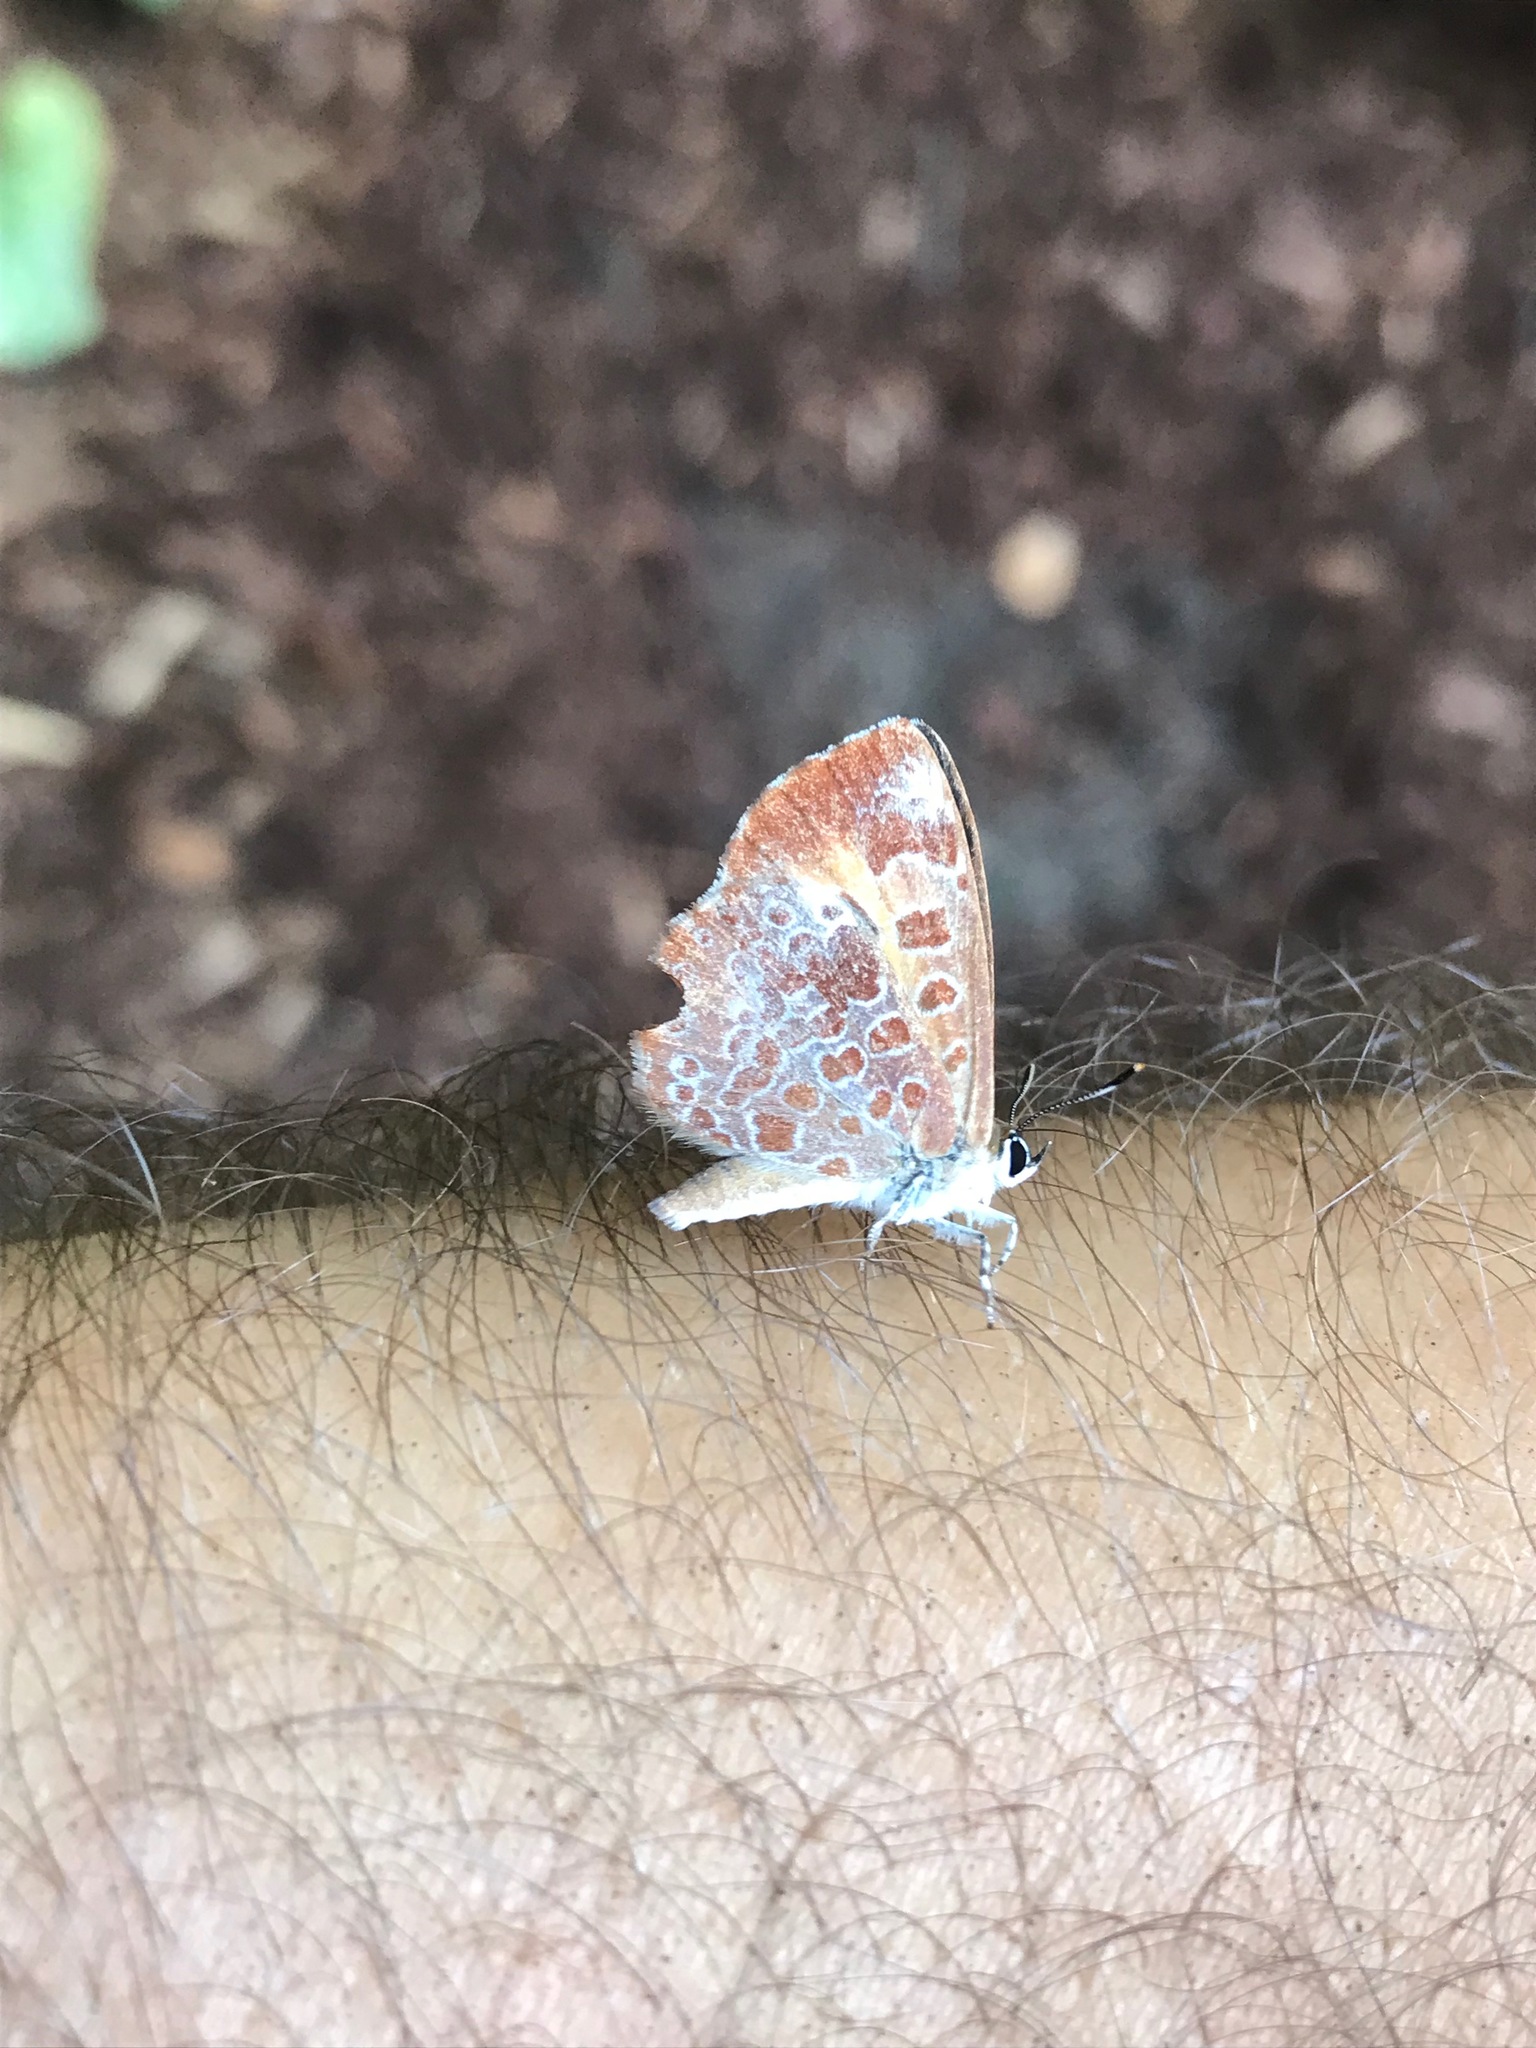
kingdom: Animalia
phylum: Arthropoda
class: Insecta
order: Lepidoptera
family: Lycaenidae
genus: Feniseca
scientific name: Feniseca tarquinius
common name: Harvester
